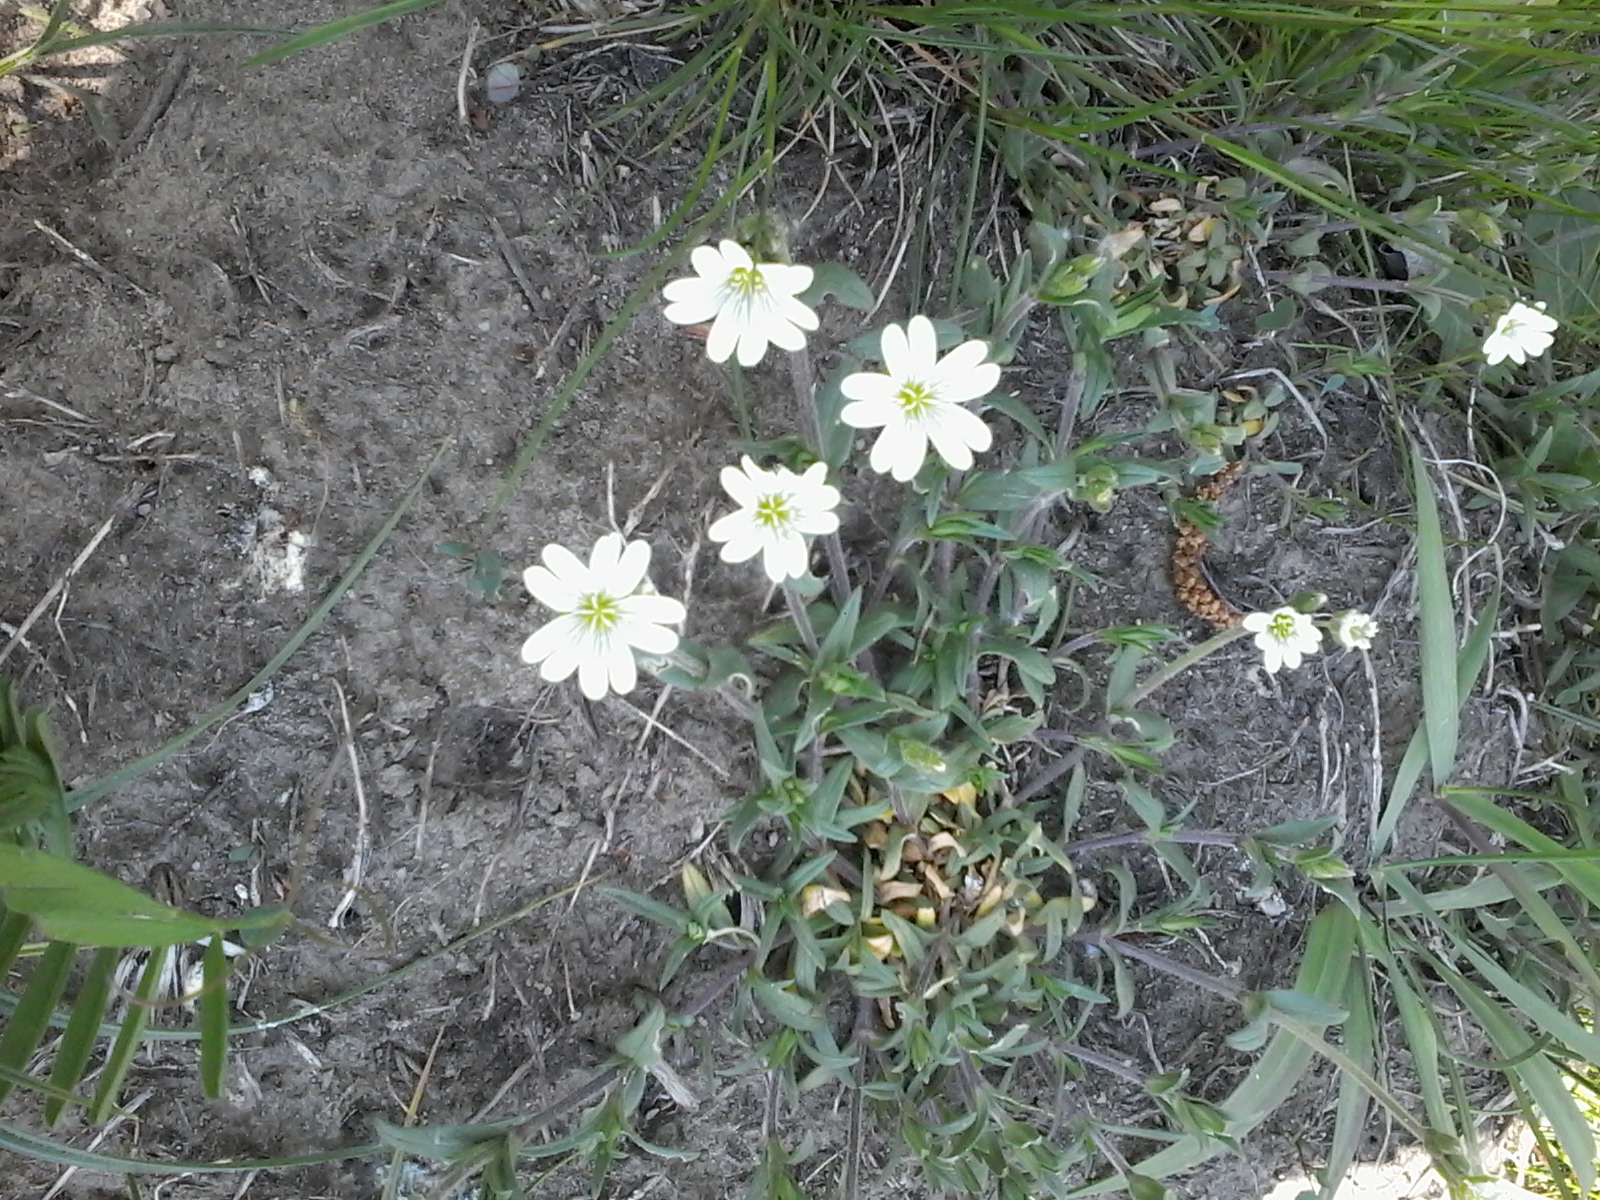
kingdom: Plantae
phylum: Tracheophyta
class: Magnoliopsida
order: Caryophyllales
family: Caryophyllaceae
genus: Cerastium
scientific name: Cerastium arvense
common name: Field mouse-ear
